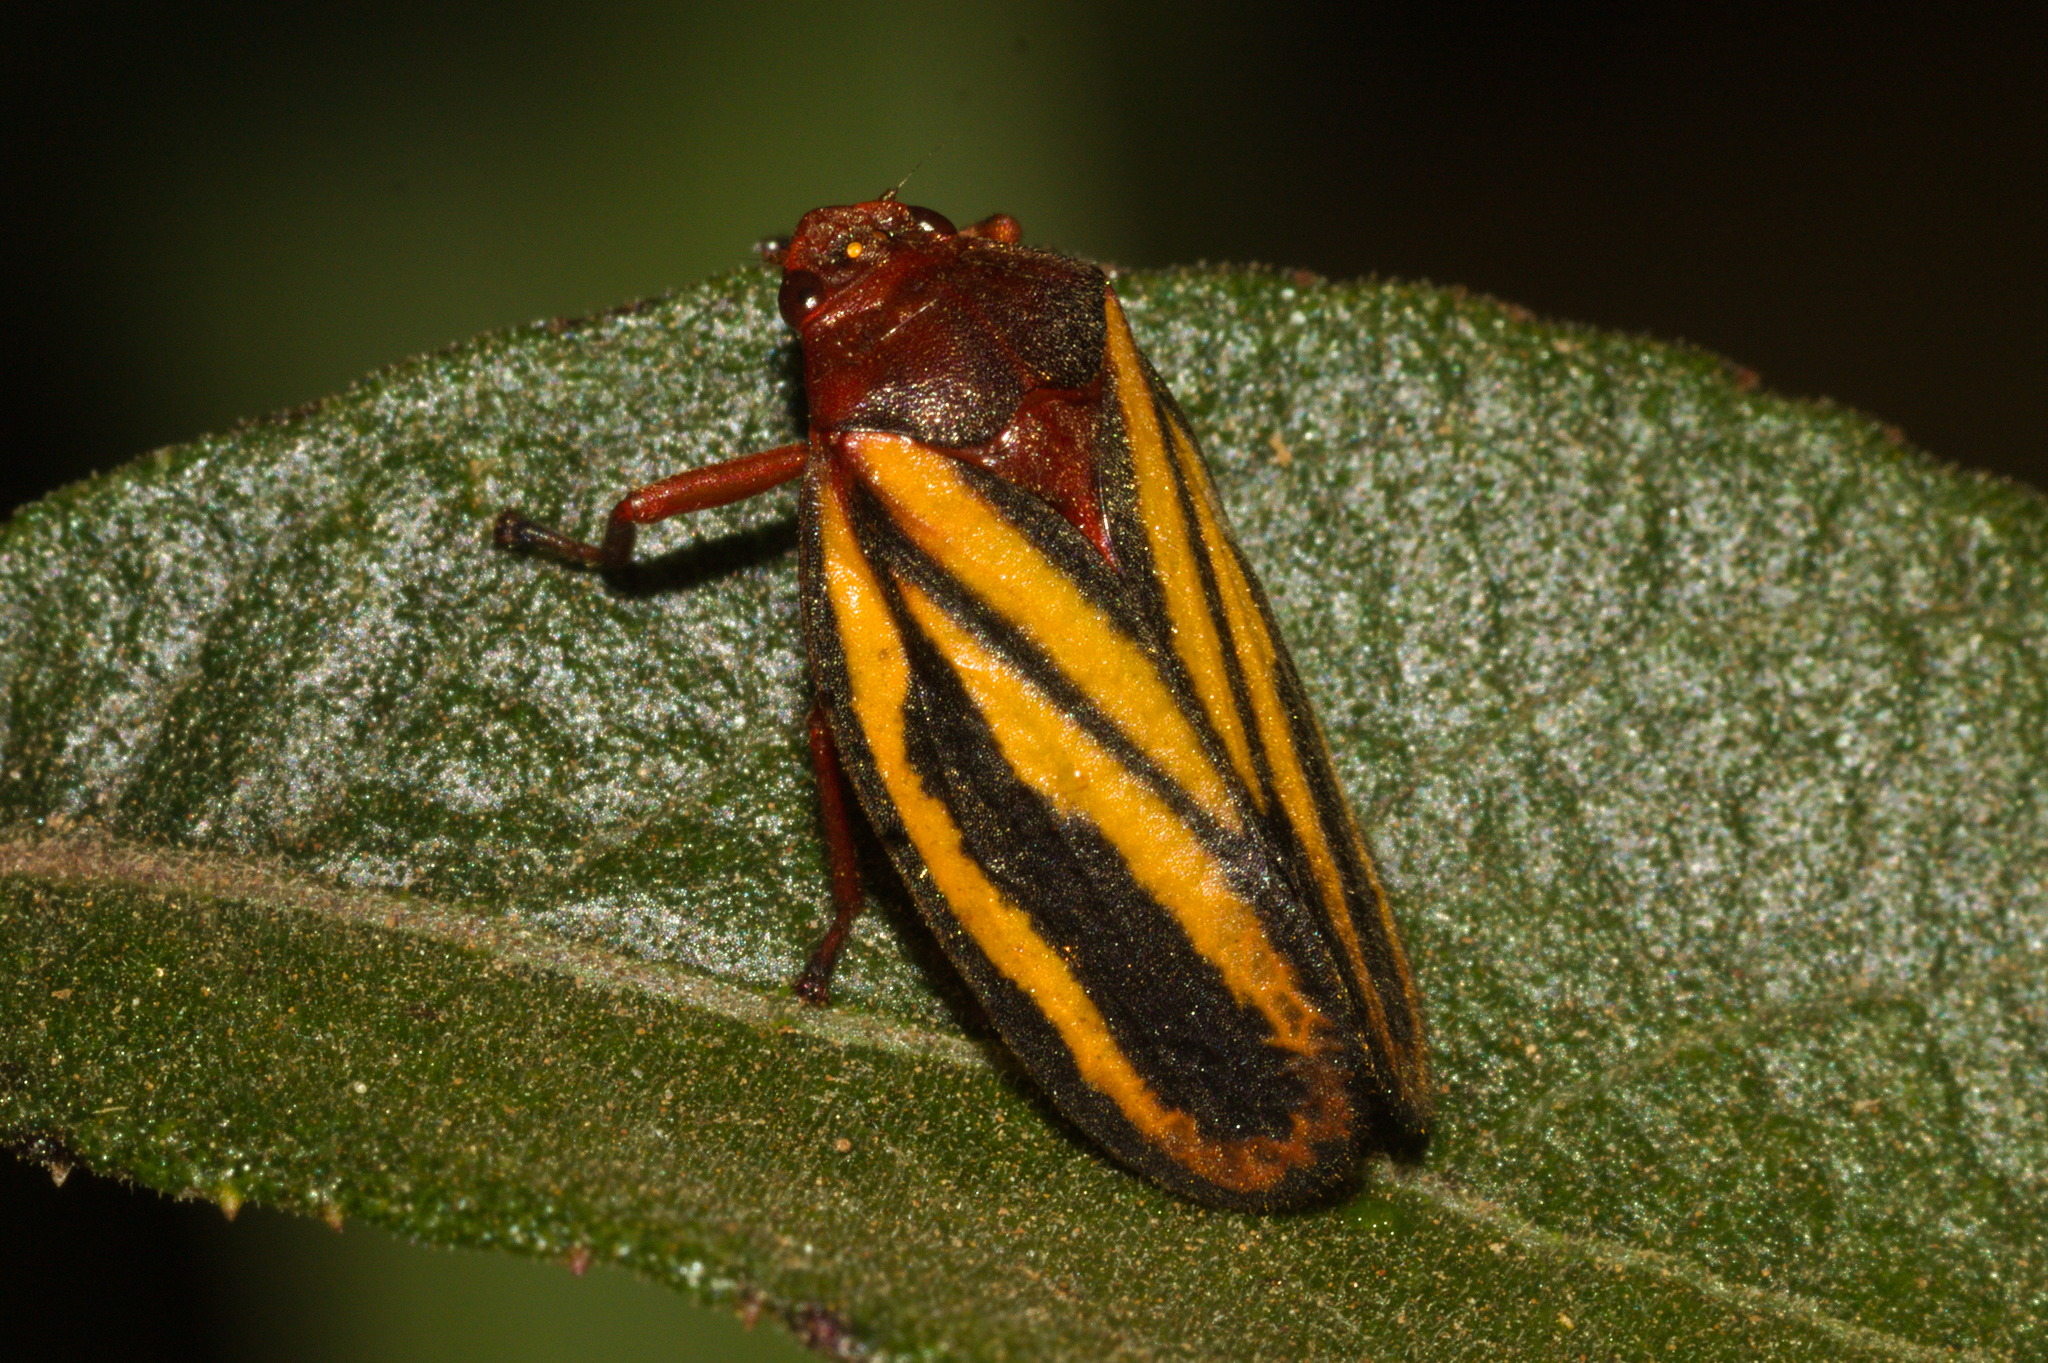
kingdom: Animalia
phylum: Arthropoda
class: Insecta
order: Hemiptera
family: Cercopidae
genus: Mahanarva
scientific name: Mahanarva spectabilis
